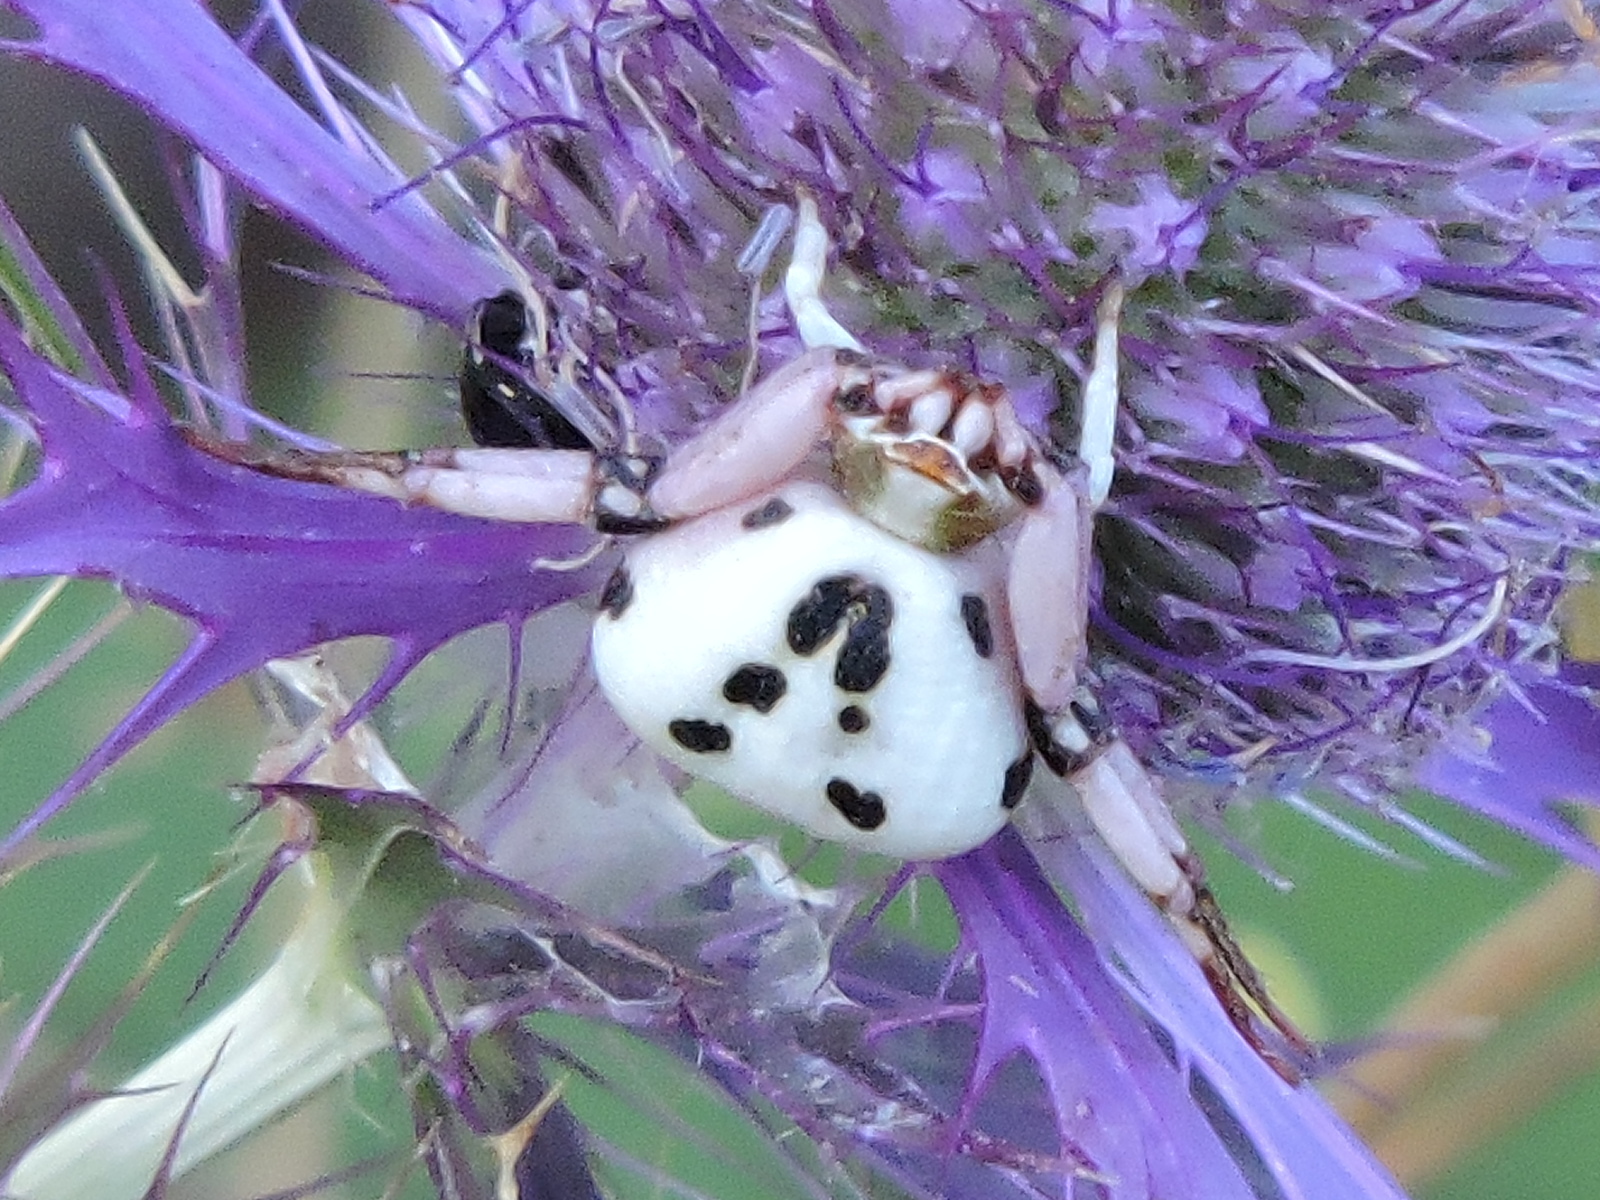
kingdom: Animalia
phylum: Arthropoda
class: Arachnida
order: Araneae
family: Thomisidae
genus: Misumenoides
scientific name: Misumenoides formosipes
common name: White-banded crab spider
